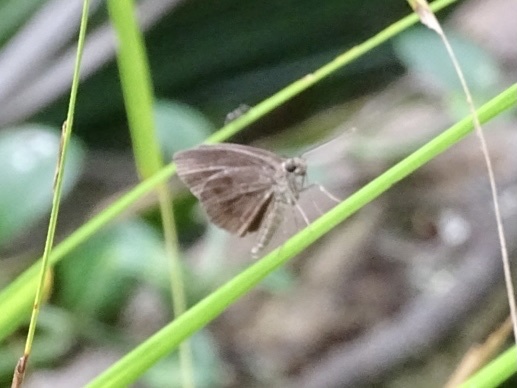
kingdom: Animalia
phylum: Arthropoda
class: Insecta
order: Lepidoptera
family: Hesperiidae
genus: Astictopterus
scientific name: Astictopterus jama
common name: Forest hopper
